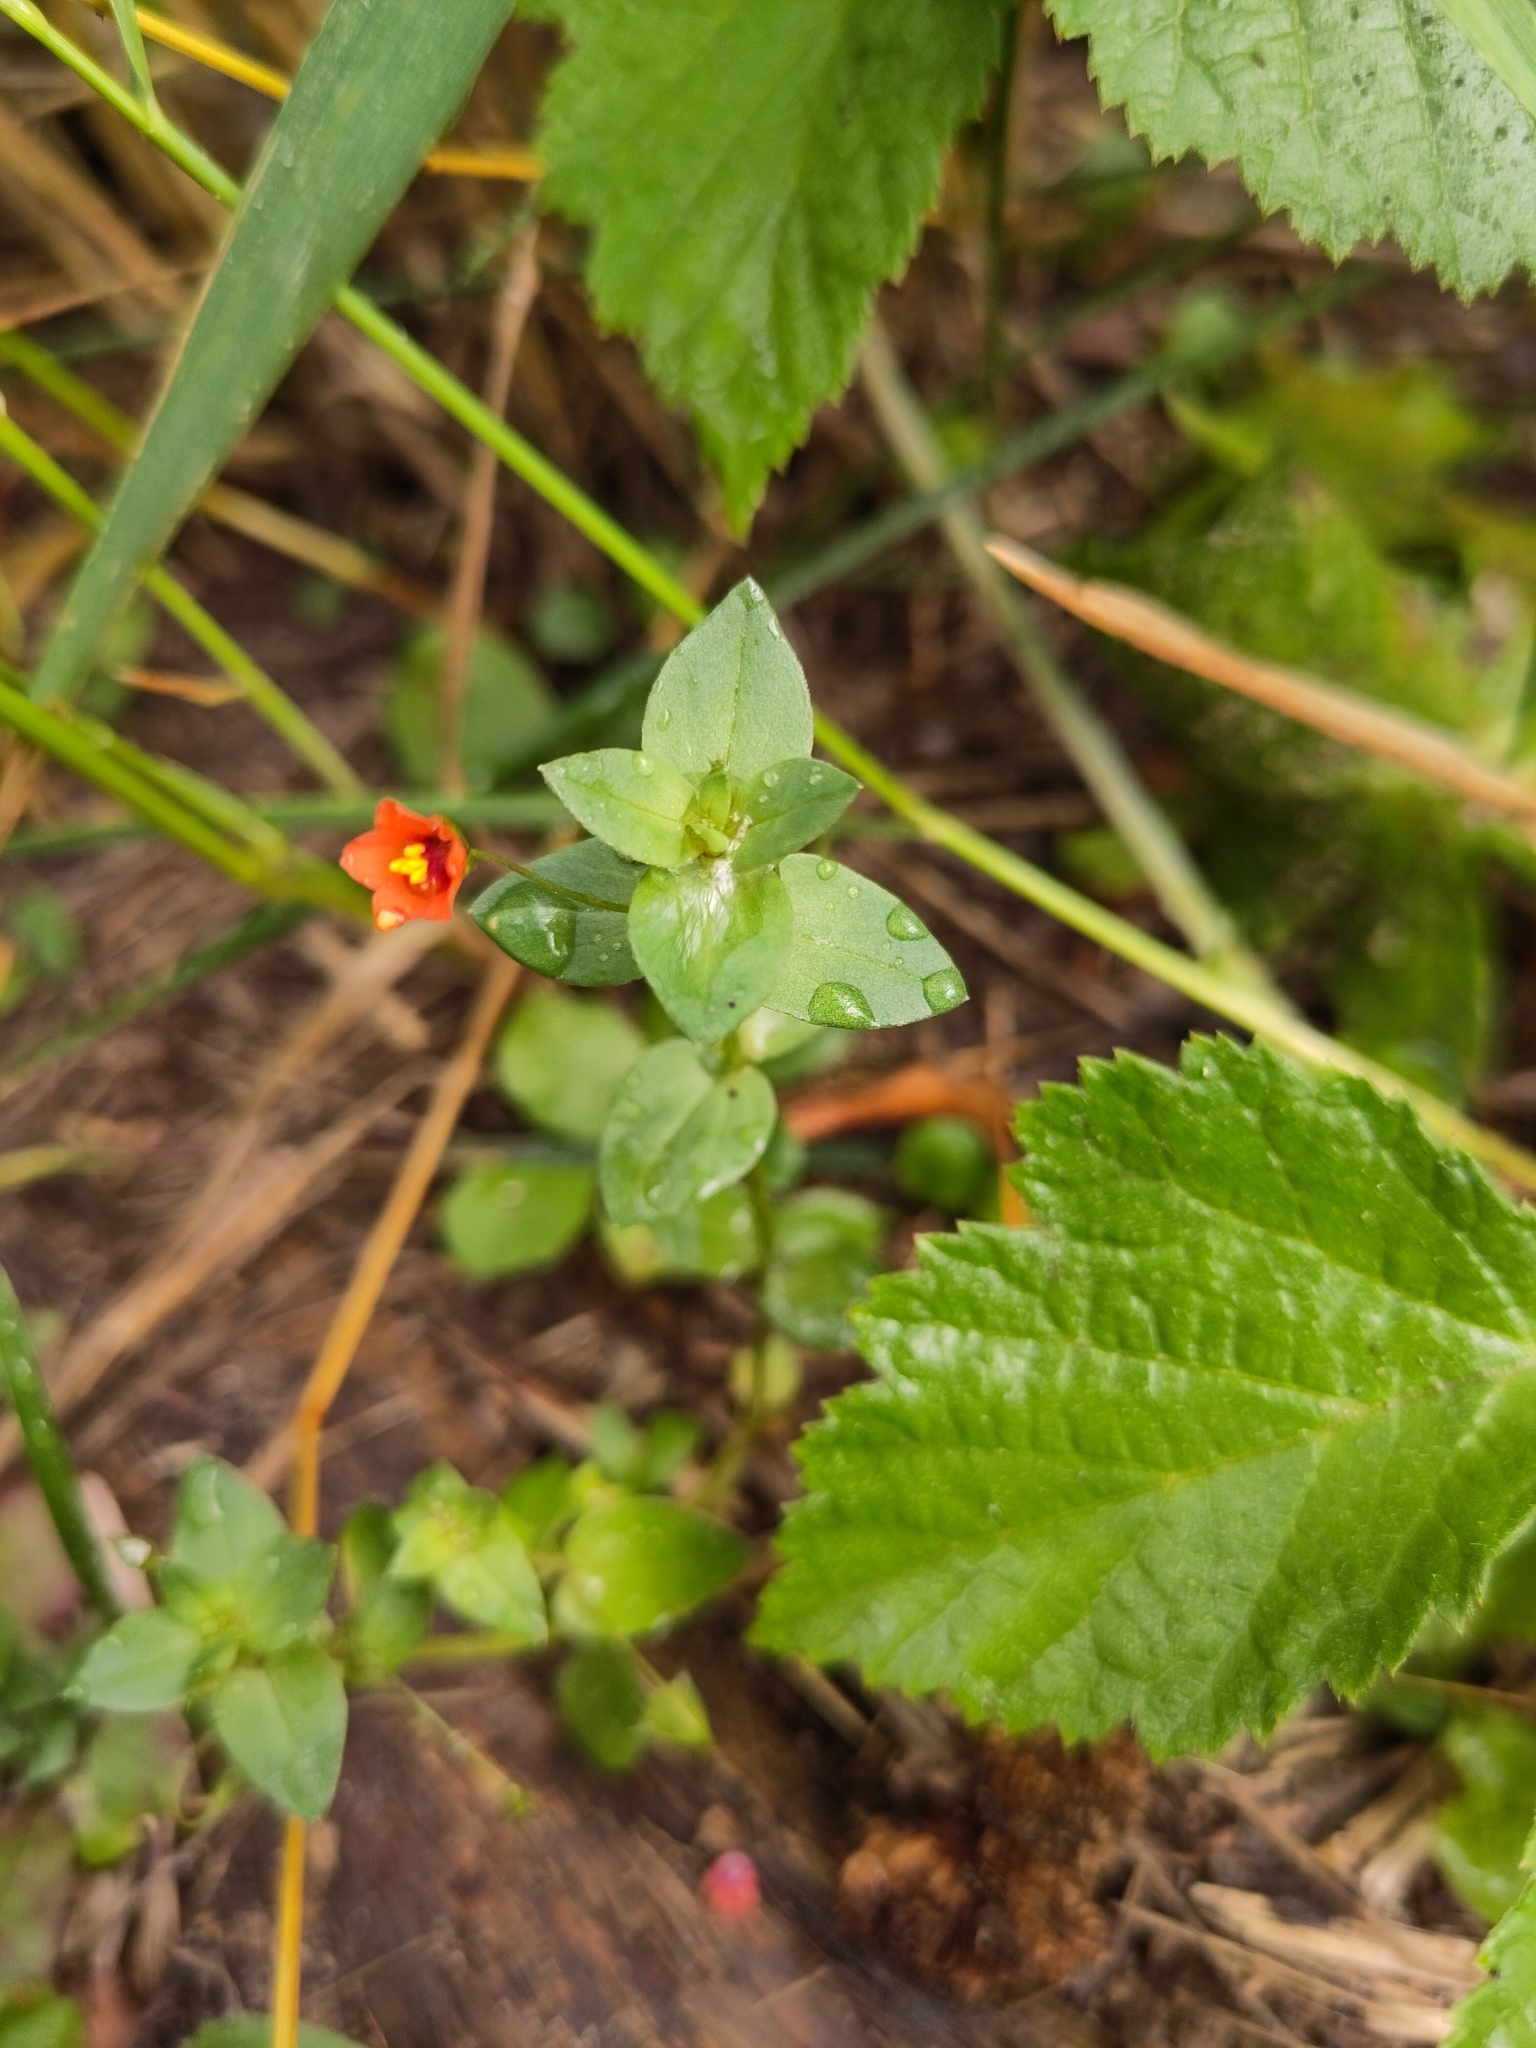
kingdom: Plantae
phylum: Tracheophyta
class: Magnoliopsida
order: Ericales
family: Primulaceae
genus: Lysimachia
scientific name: Lysimachia arvensis
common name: Scarlet pimpernel
